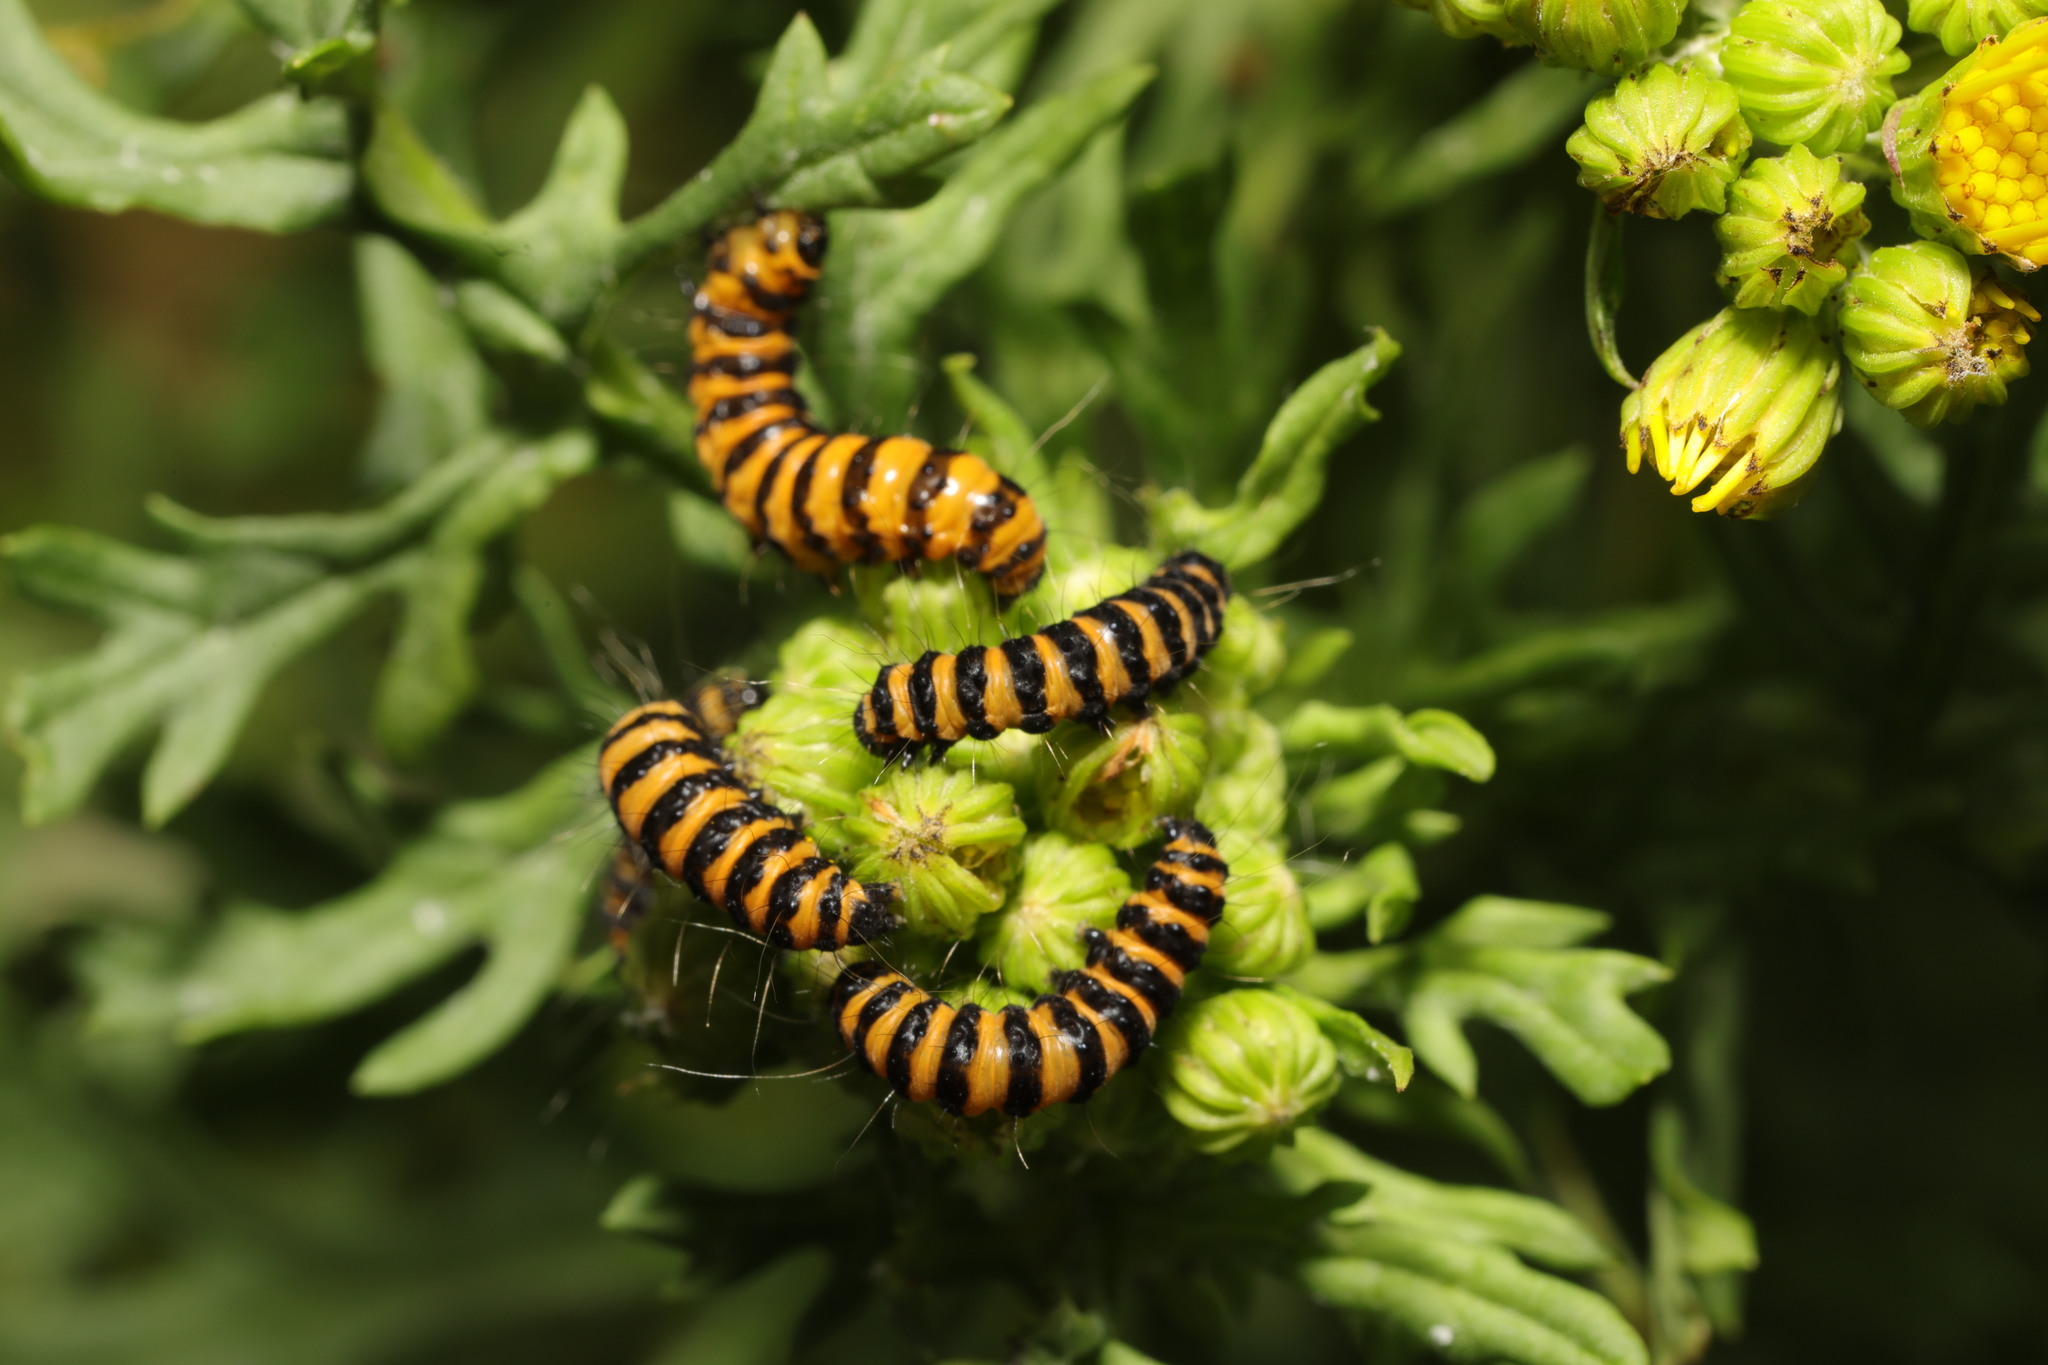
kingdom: Animalia
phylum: Arthropoda
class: Insecta
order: Lepidoptera
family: Erebidae
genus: Tyria
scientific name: Tyria jacobaeae
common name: Cinnabar
